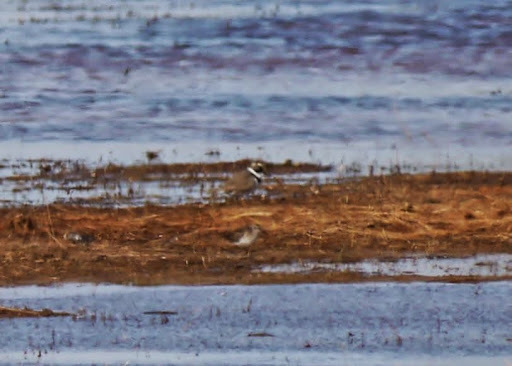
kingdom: Animalia
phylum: Chordata
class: Aves
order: Charadriiformes
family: Scolopacidae
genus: Calidris
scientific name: Calidris minutilla
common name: Least sandpiper
